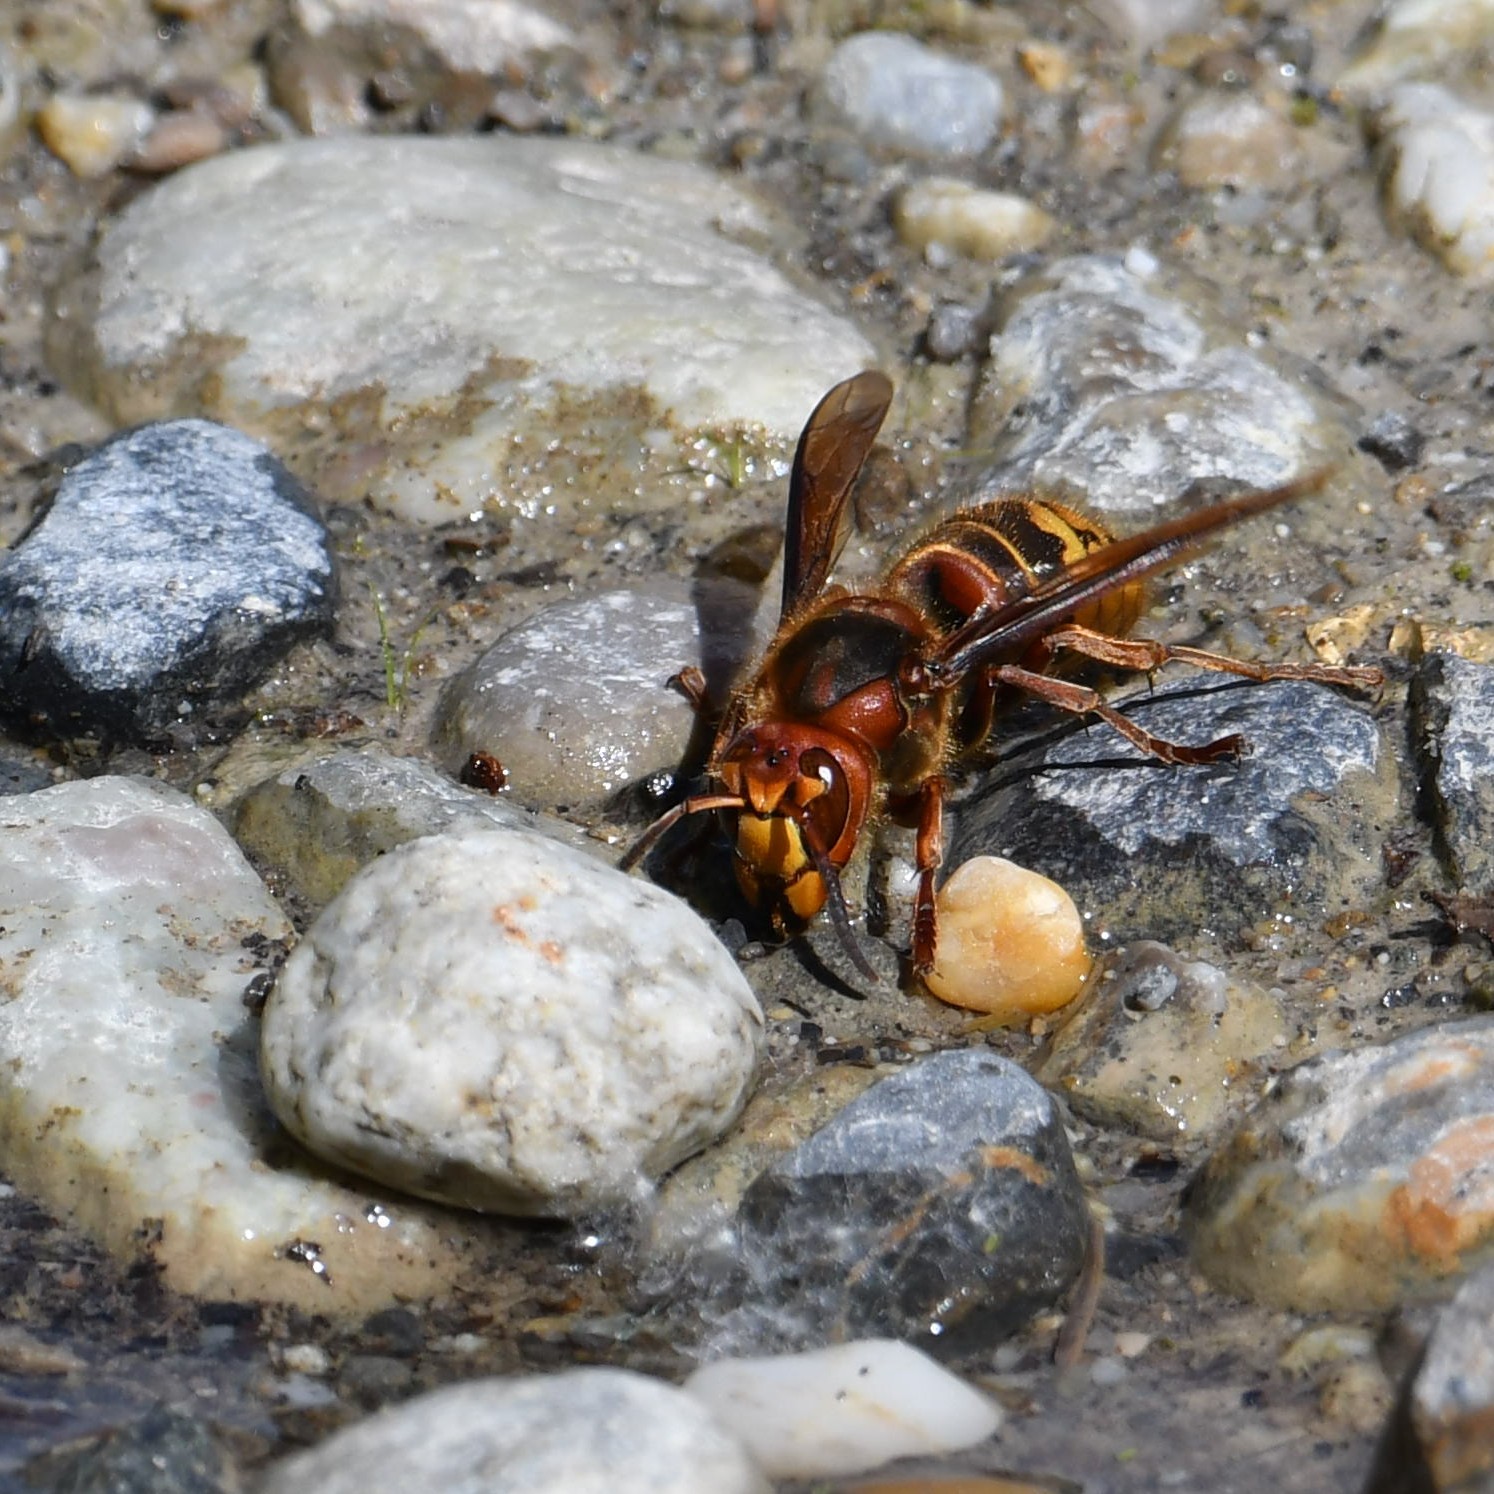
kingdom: Animalia
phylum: Arthropoda
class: Insecta
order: Hymenoptera
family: Vespidae
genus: Vespa
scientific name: Vespa crabro
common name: Hornet
